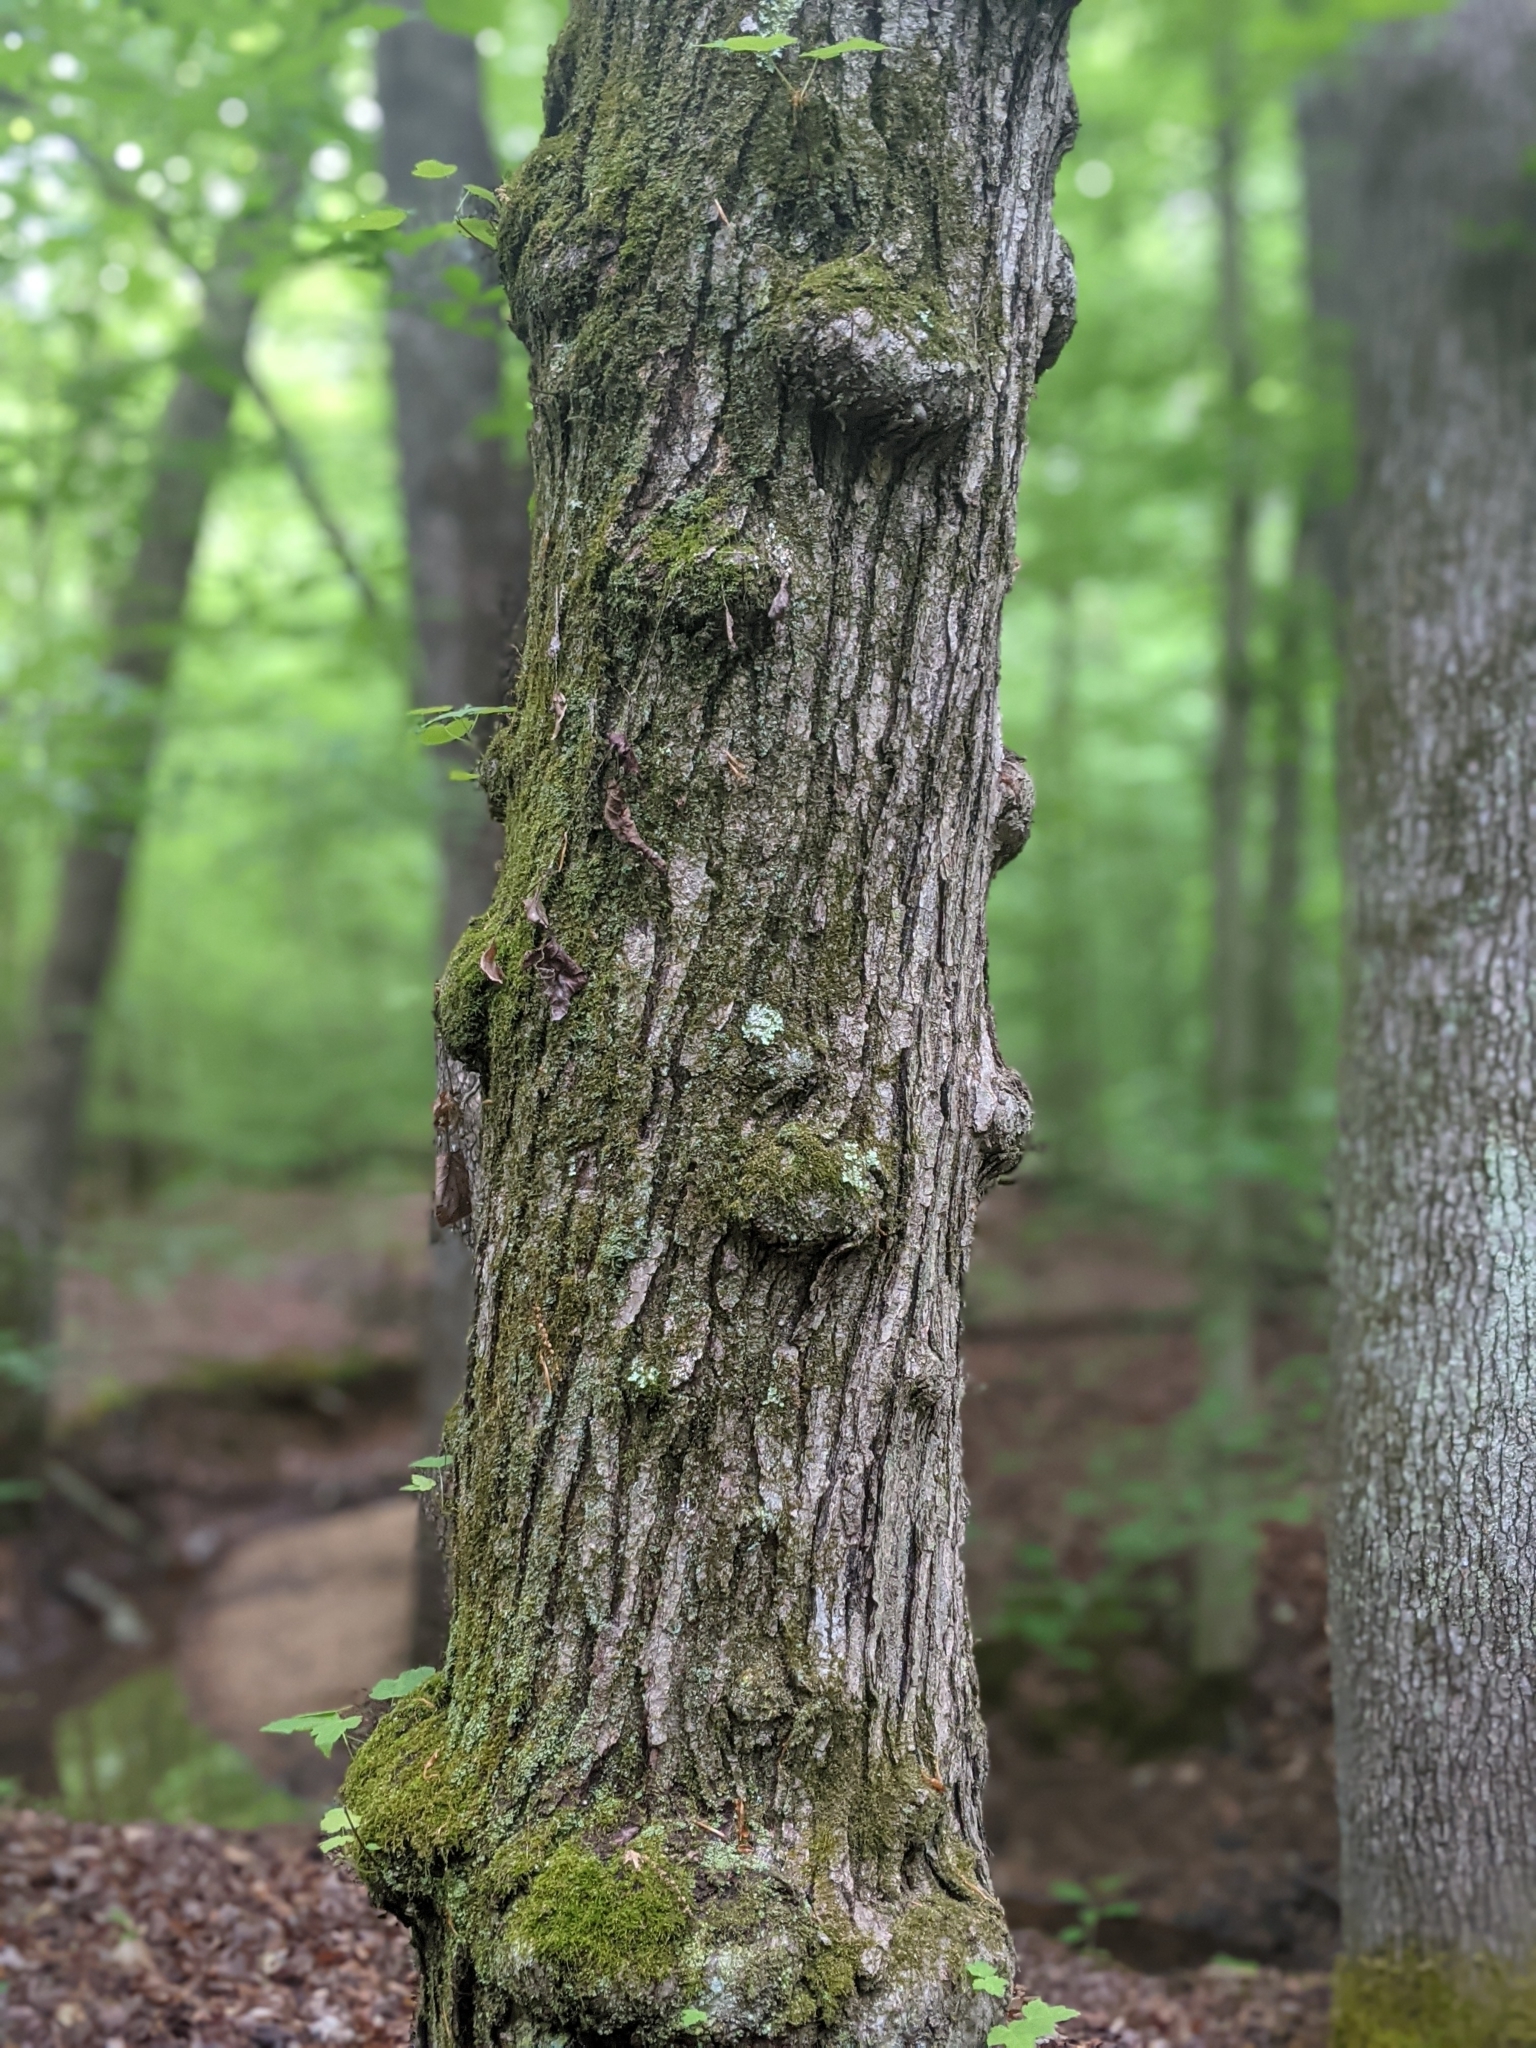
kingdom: Plantae
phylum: Tracheophyta
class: Magnoliopsida
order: Sapindales
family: Sapindaceae
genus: Acer
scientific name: Acer rubrum
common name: Red maple
